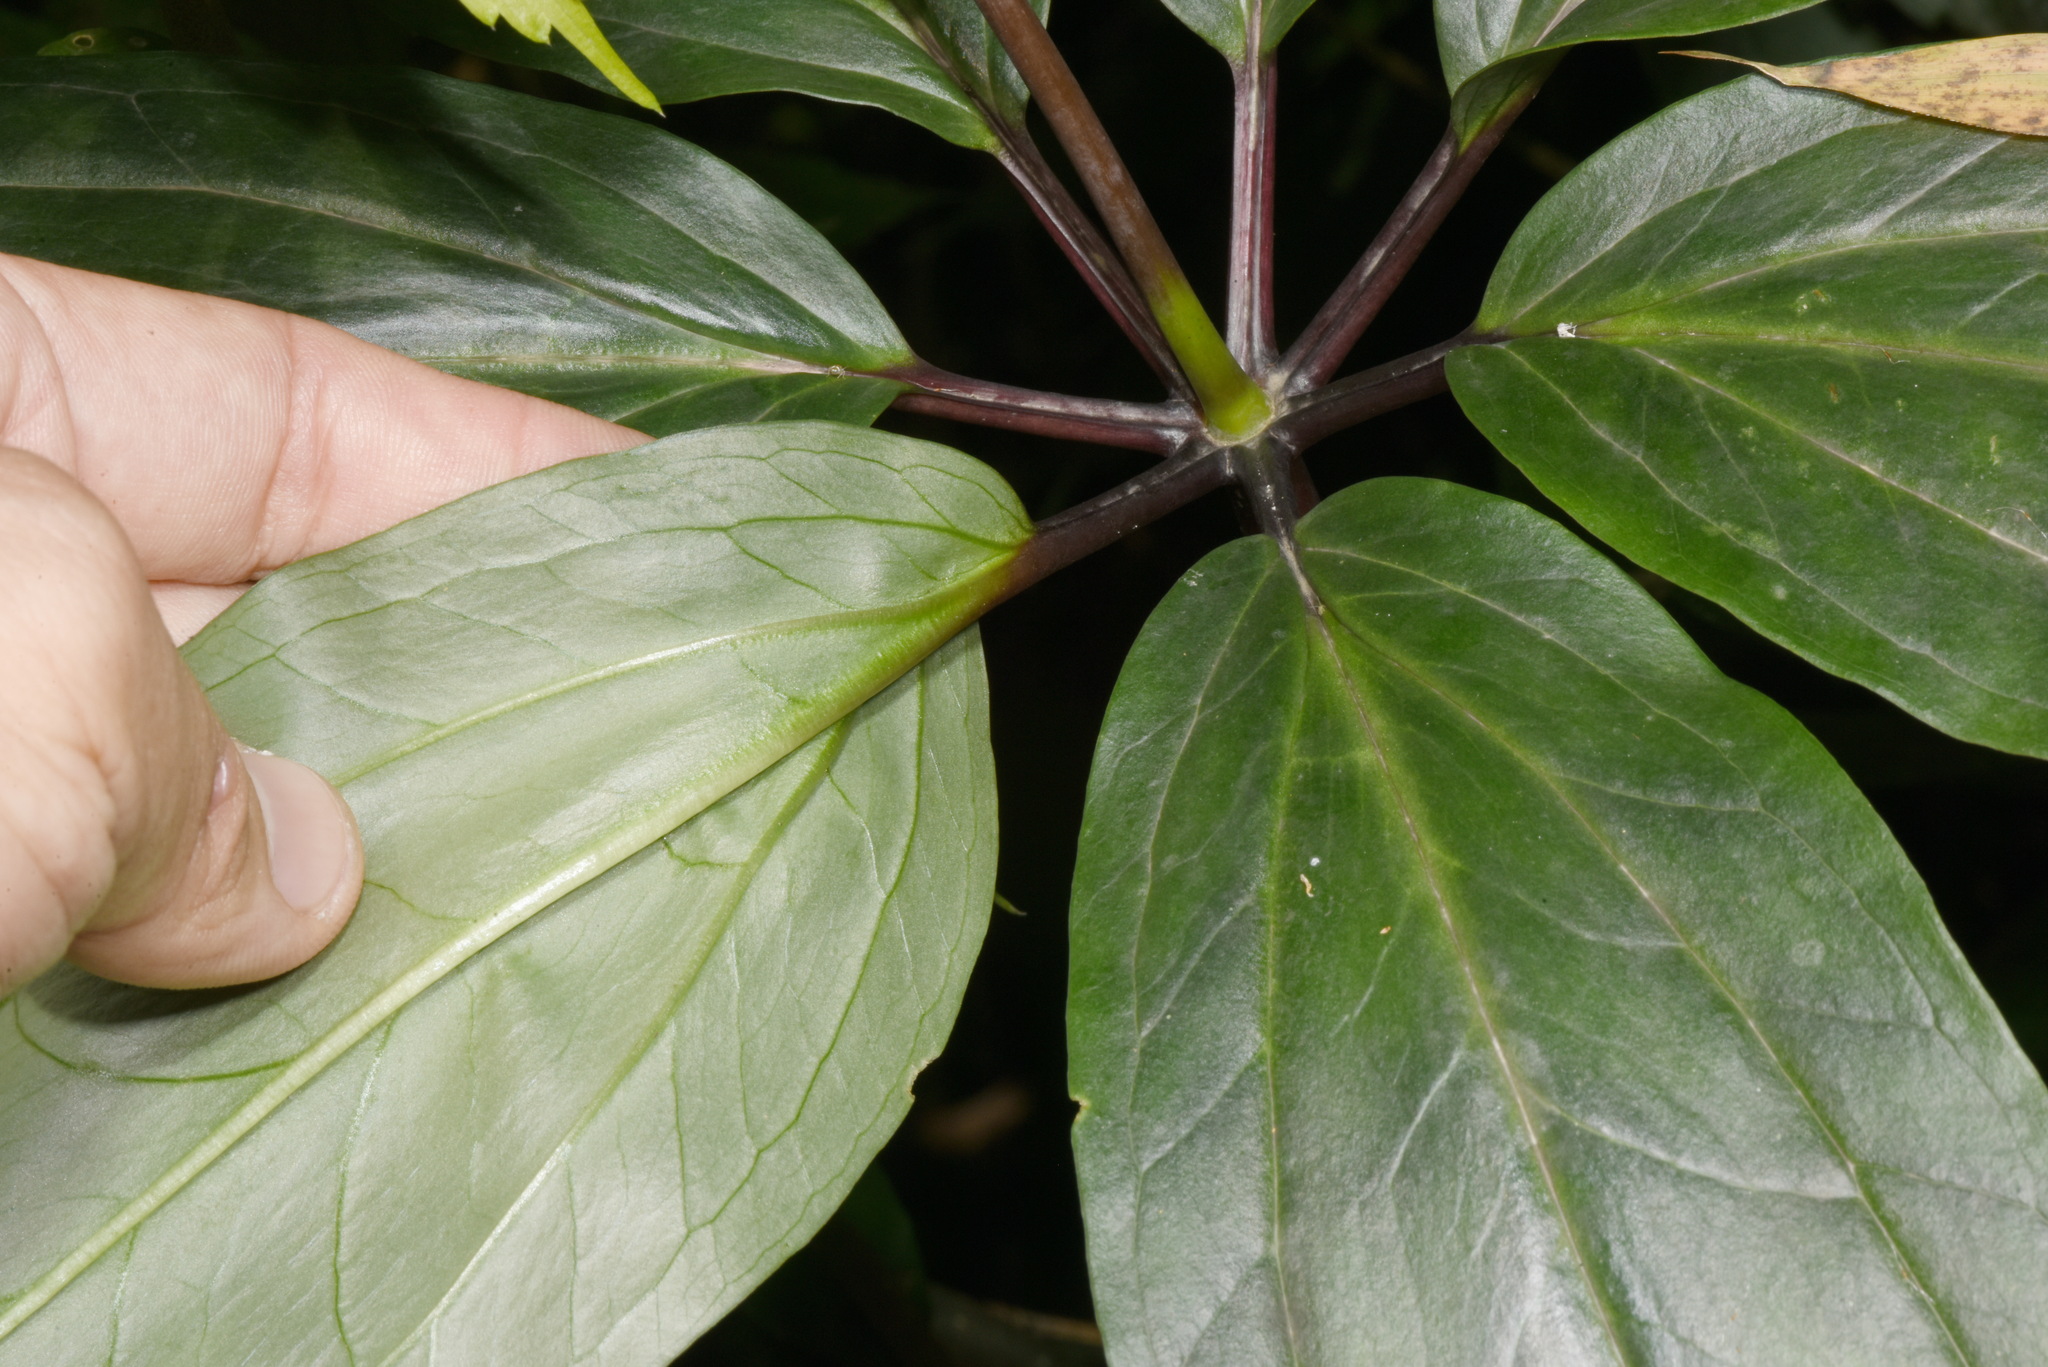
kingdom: Plantae
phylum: Tracheophyta
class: Liliopsida
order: Liliales
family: Melanthiaceae
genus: Paris
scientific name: Paris polyphylla
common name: Love apple
